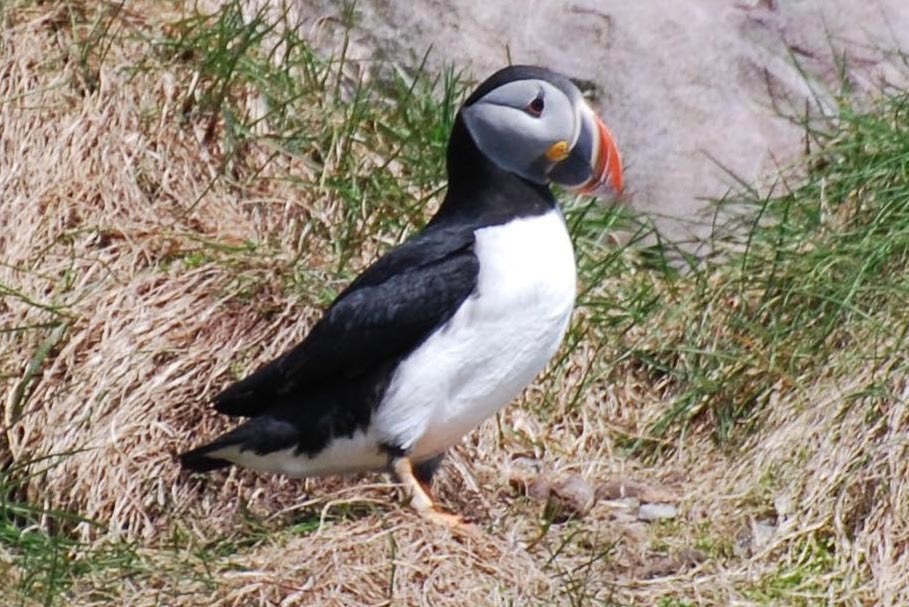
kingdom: Animalia
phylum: Chordata
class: Aves
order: Charadriiformes
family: Alcidae
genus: Fratercula
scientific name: Fratercula arctica
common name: Atlantic puffin
